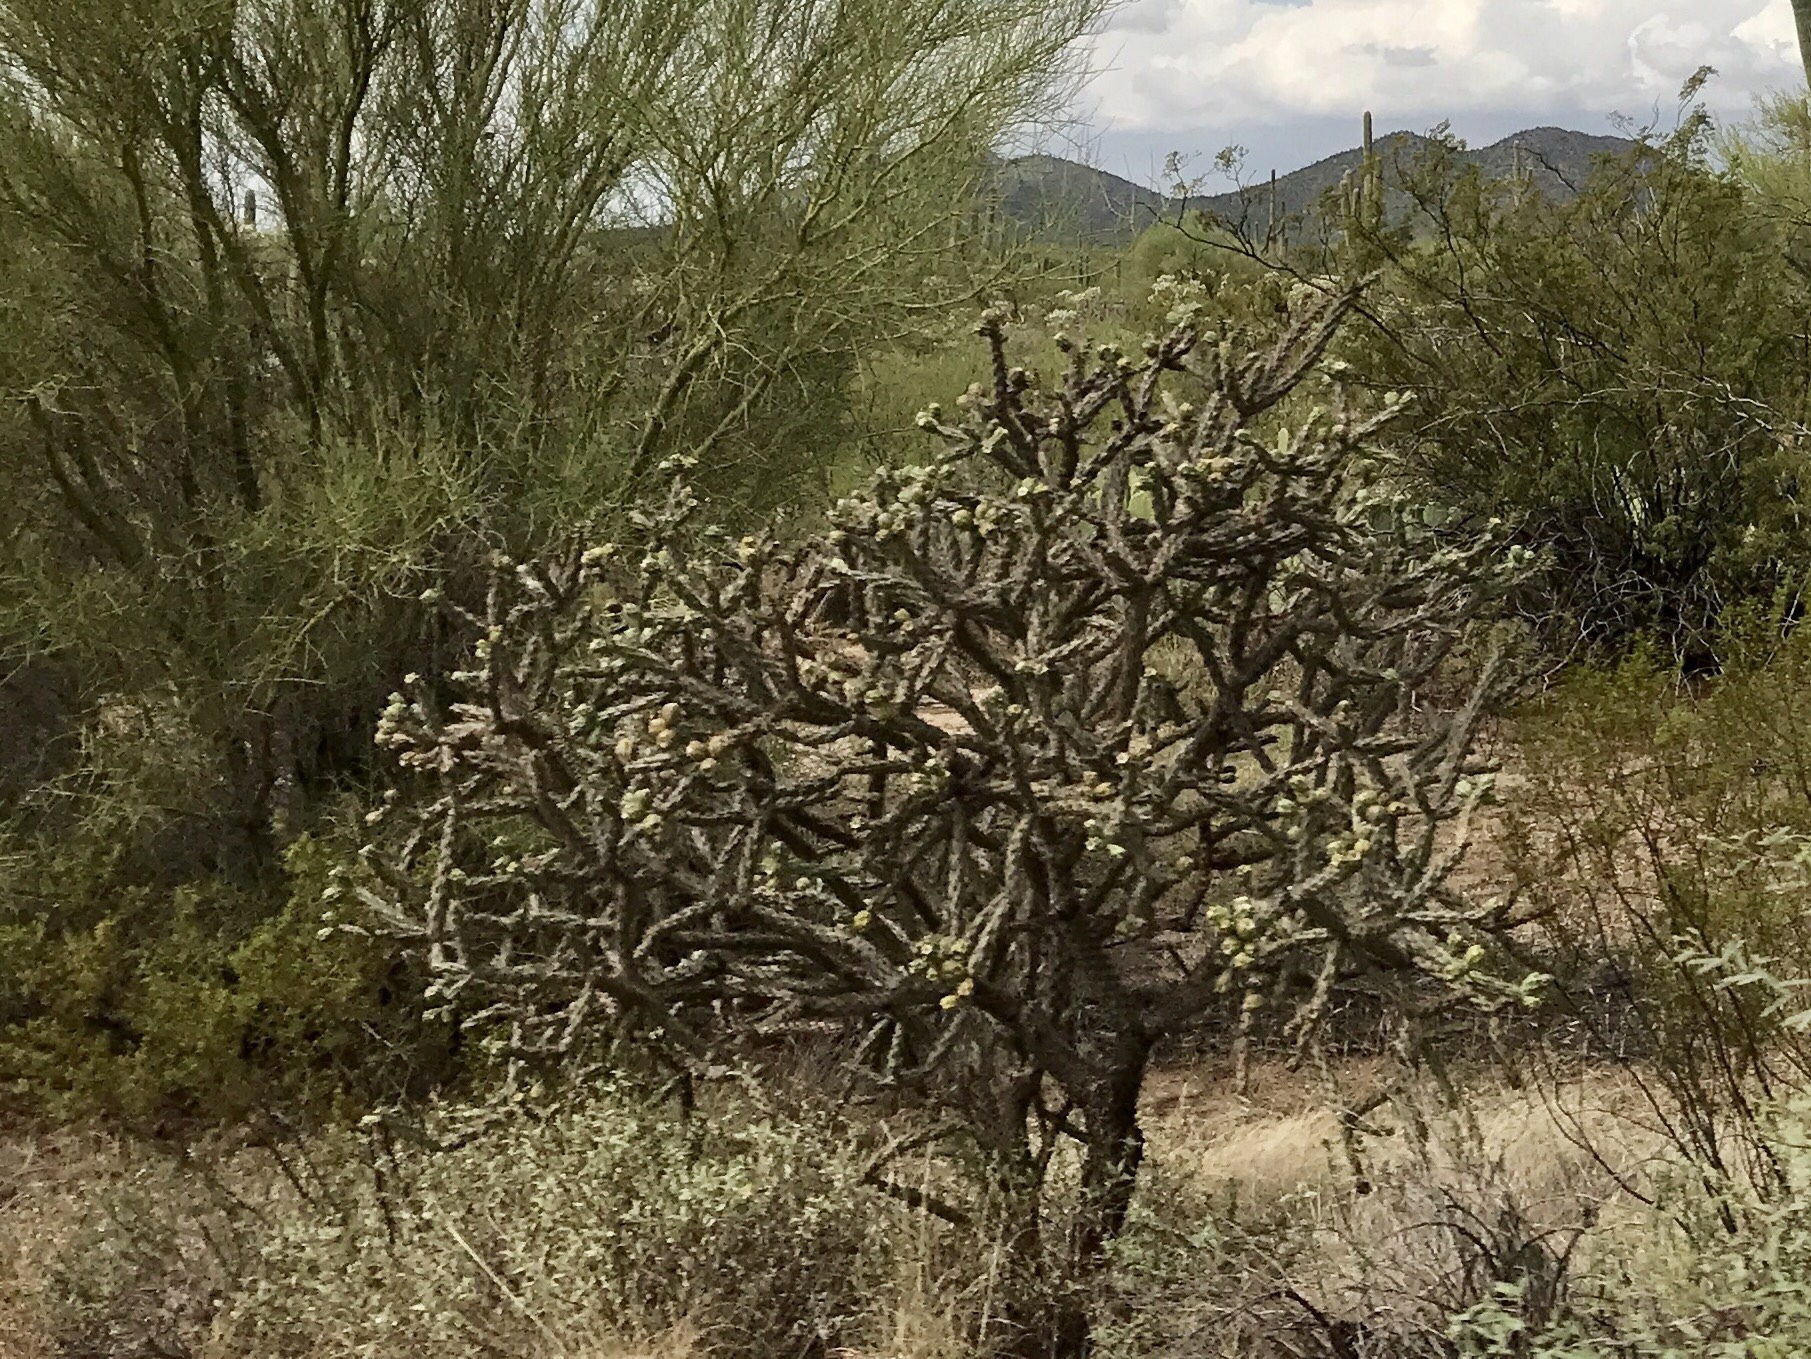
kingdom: Plantae
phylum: Tracheophyta
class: Magnoliopsida
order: Caryophyllales
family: Cactaceae
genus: Cylindropuntia
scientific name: Cylindropuntia thurberi
